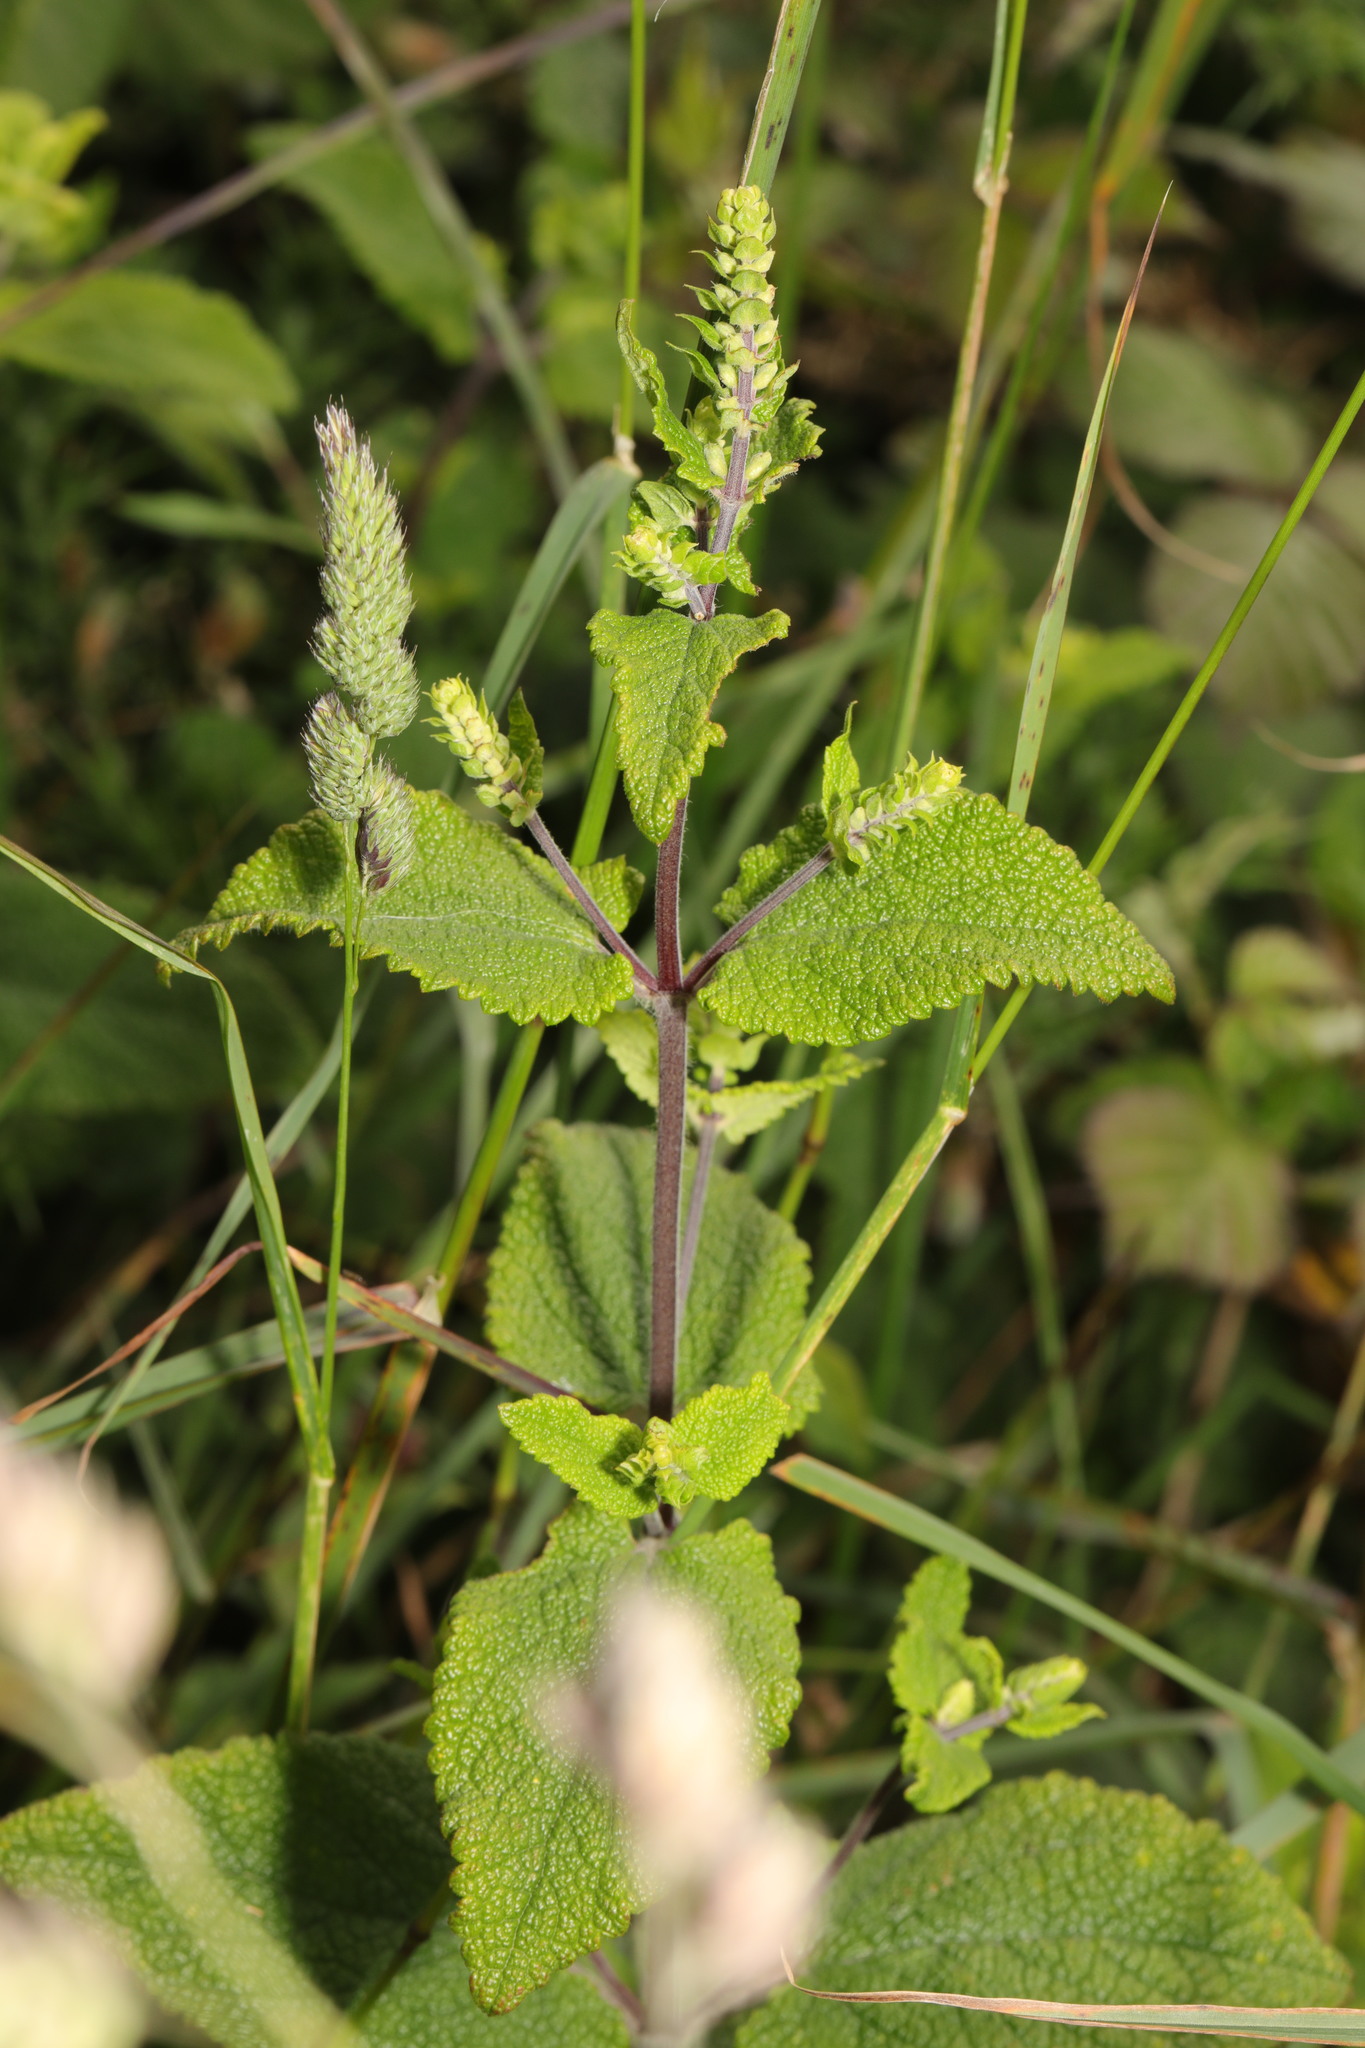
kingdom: Plantae
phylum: Tracheophyta
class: Magnoliopsida
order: Lamiales
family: Lamiaceae
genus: Teucrium
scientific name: Teucrium scorodonia
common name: Woodland germander
